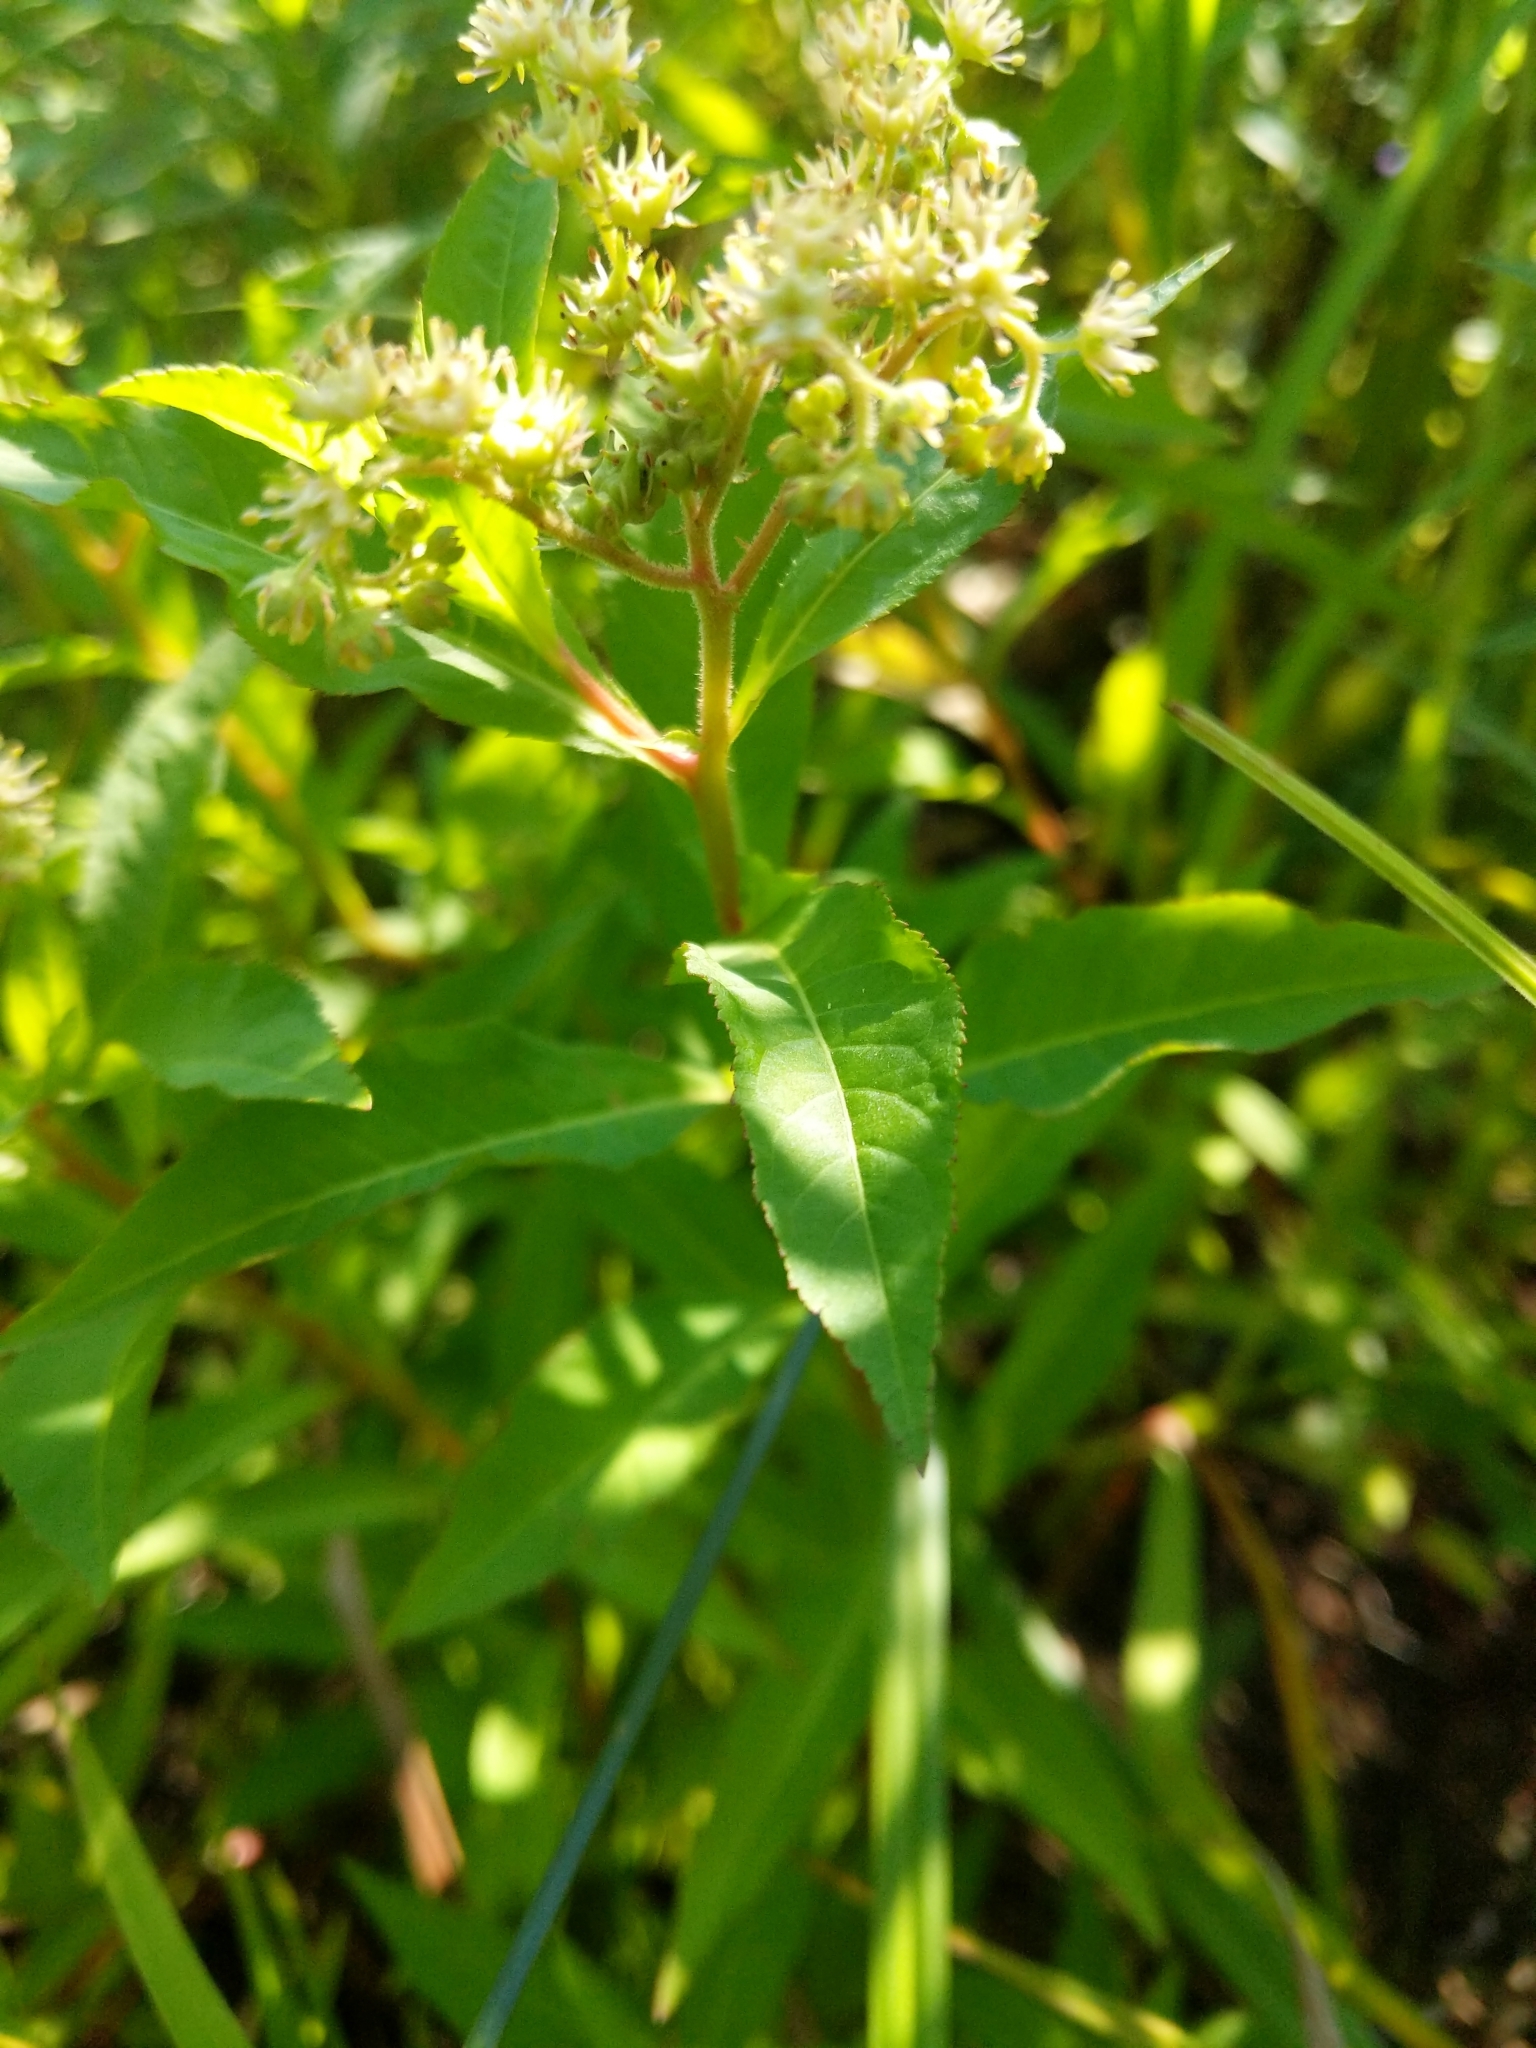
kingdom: Plantae
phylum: Tracheophyta
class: Magnoliopsida
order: Saxifragales
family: Penthoraceae
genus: Penthorum
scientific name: Penthorum sedoides
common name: Ditch stonecrop
